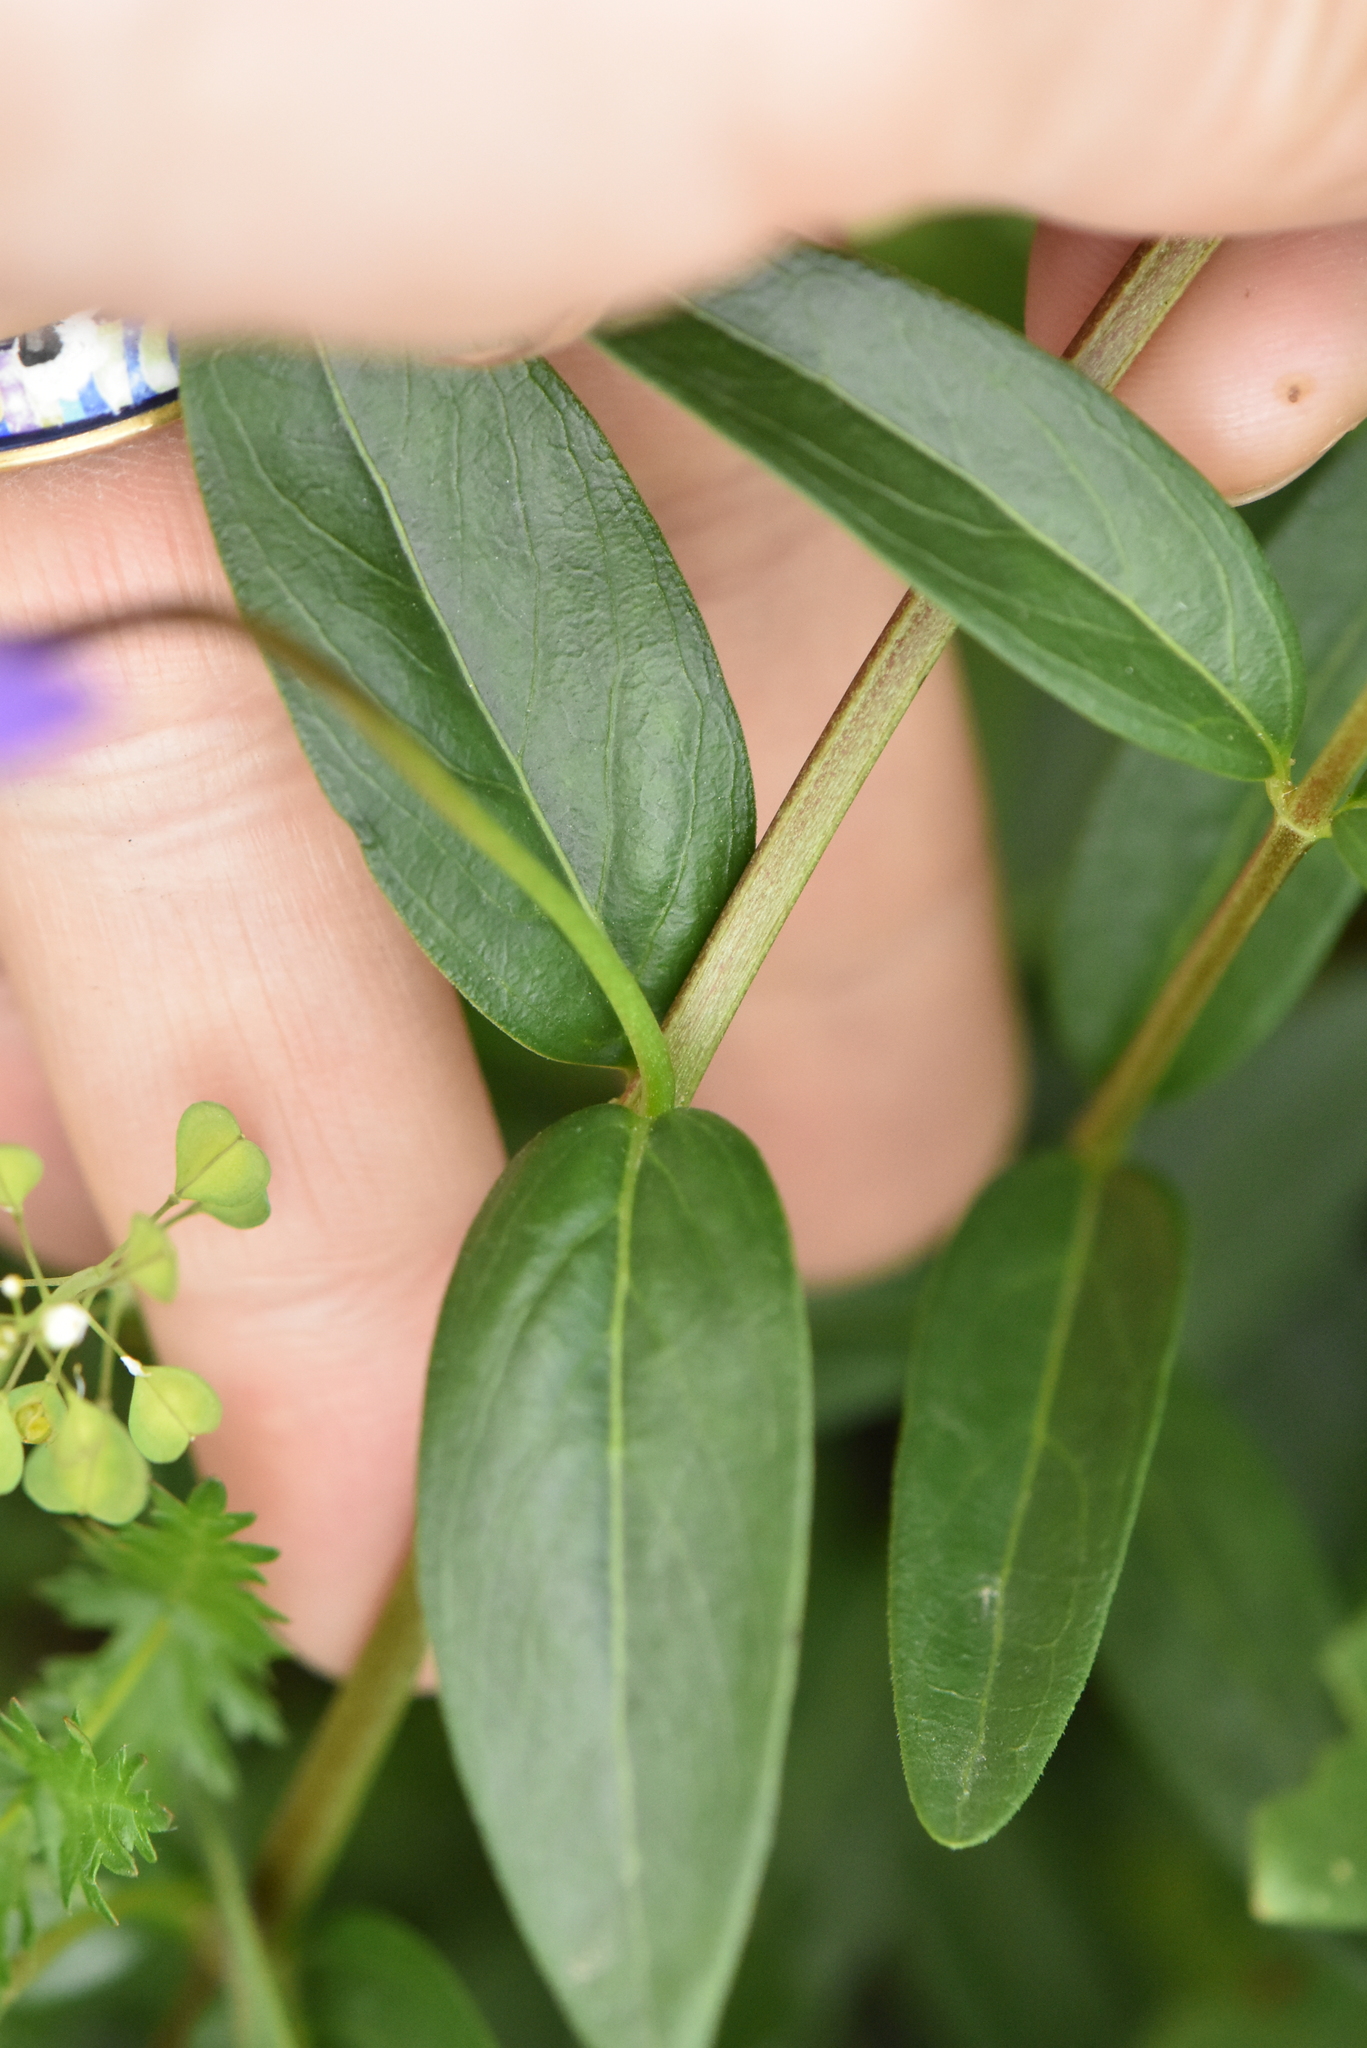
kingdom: Plantae
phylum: Tracheophyta
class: Magnoliopsida
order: Gentianales
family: Apocynaceae
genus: Vinca
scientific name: Vinca herbacea
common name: Herbaceous periwinkle
